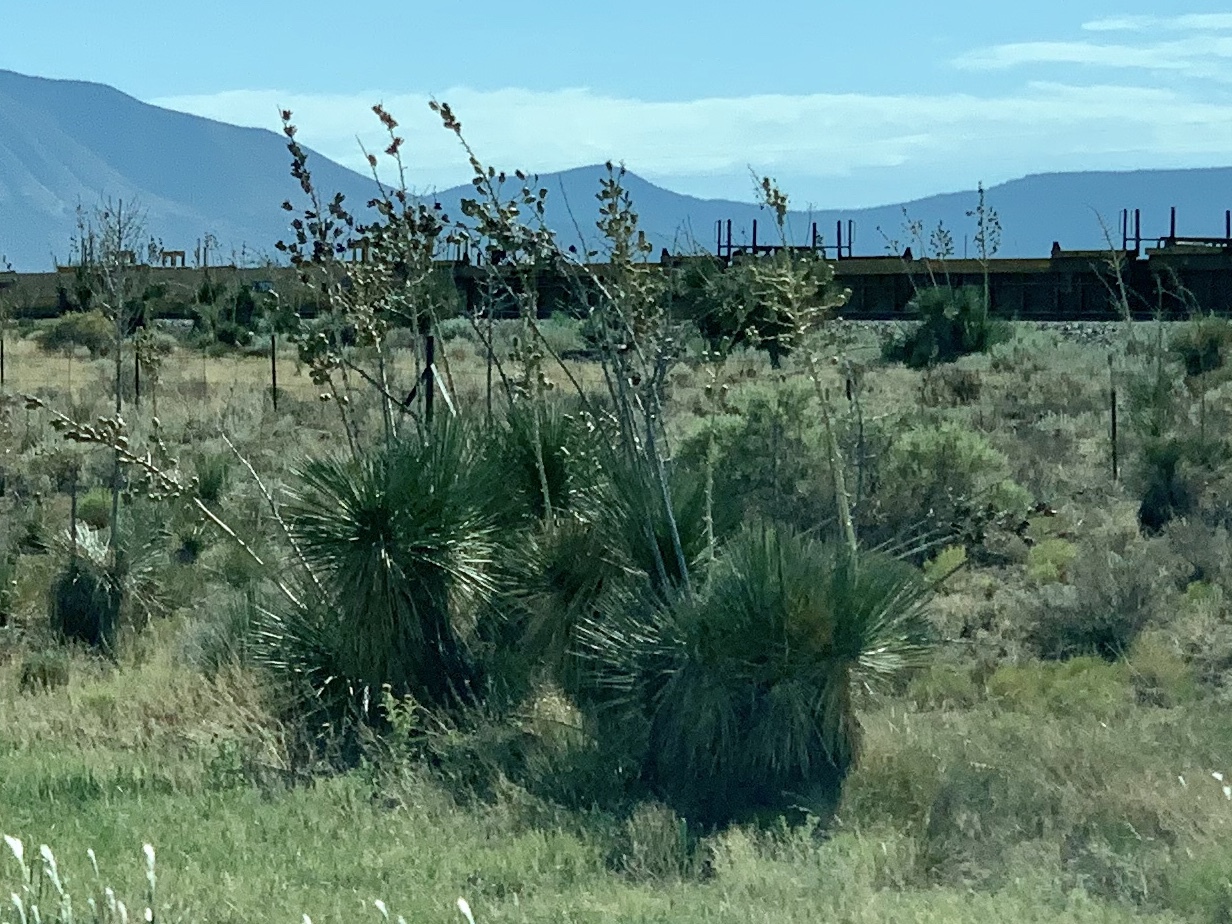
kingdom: Plantae
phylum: Tracheophyta
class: Liliopsida
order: Asparagales
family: Asparagaceae
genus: Yucca
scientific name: Yucca elata
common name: Palmella
